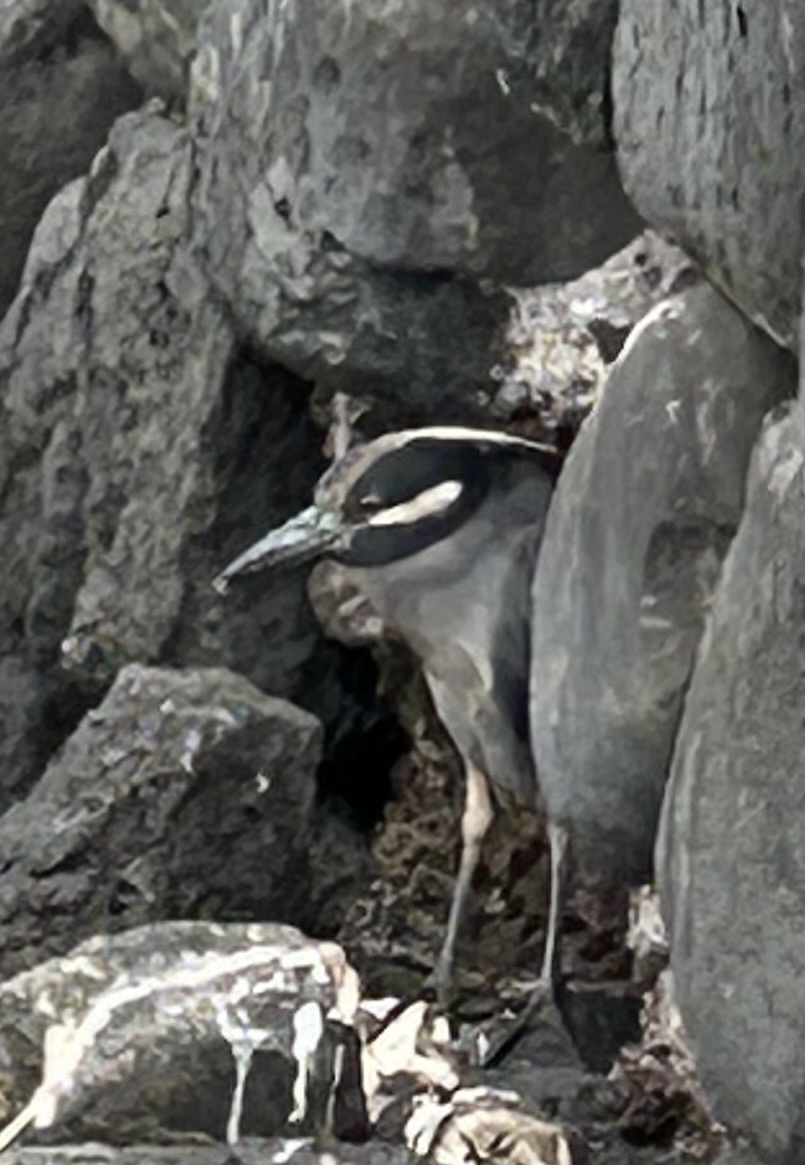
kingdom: Animalia
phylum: Chordata
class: Aves
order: Pelecaniformes
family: Ardeidae
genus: Nyctanassa
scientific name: Nyctanassa violacea
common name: Yellow-crowned night heron
